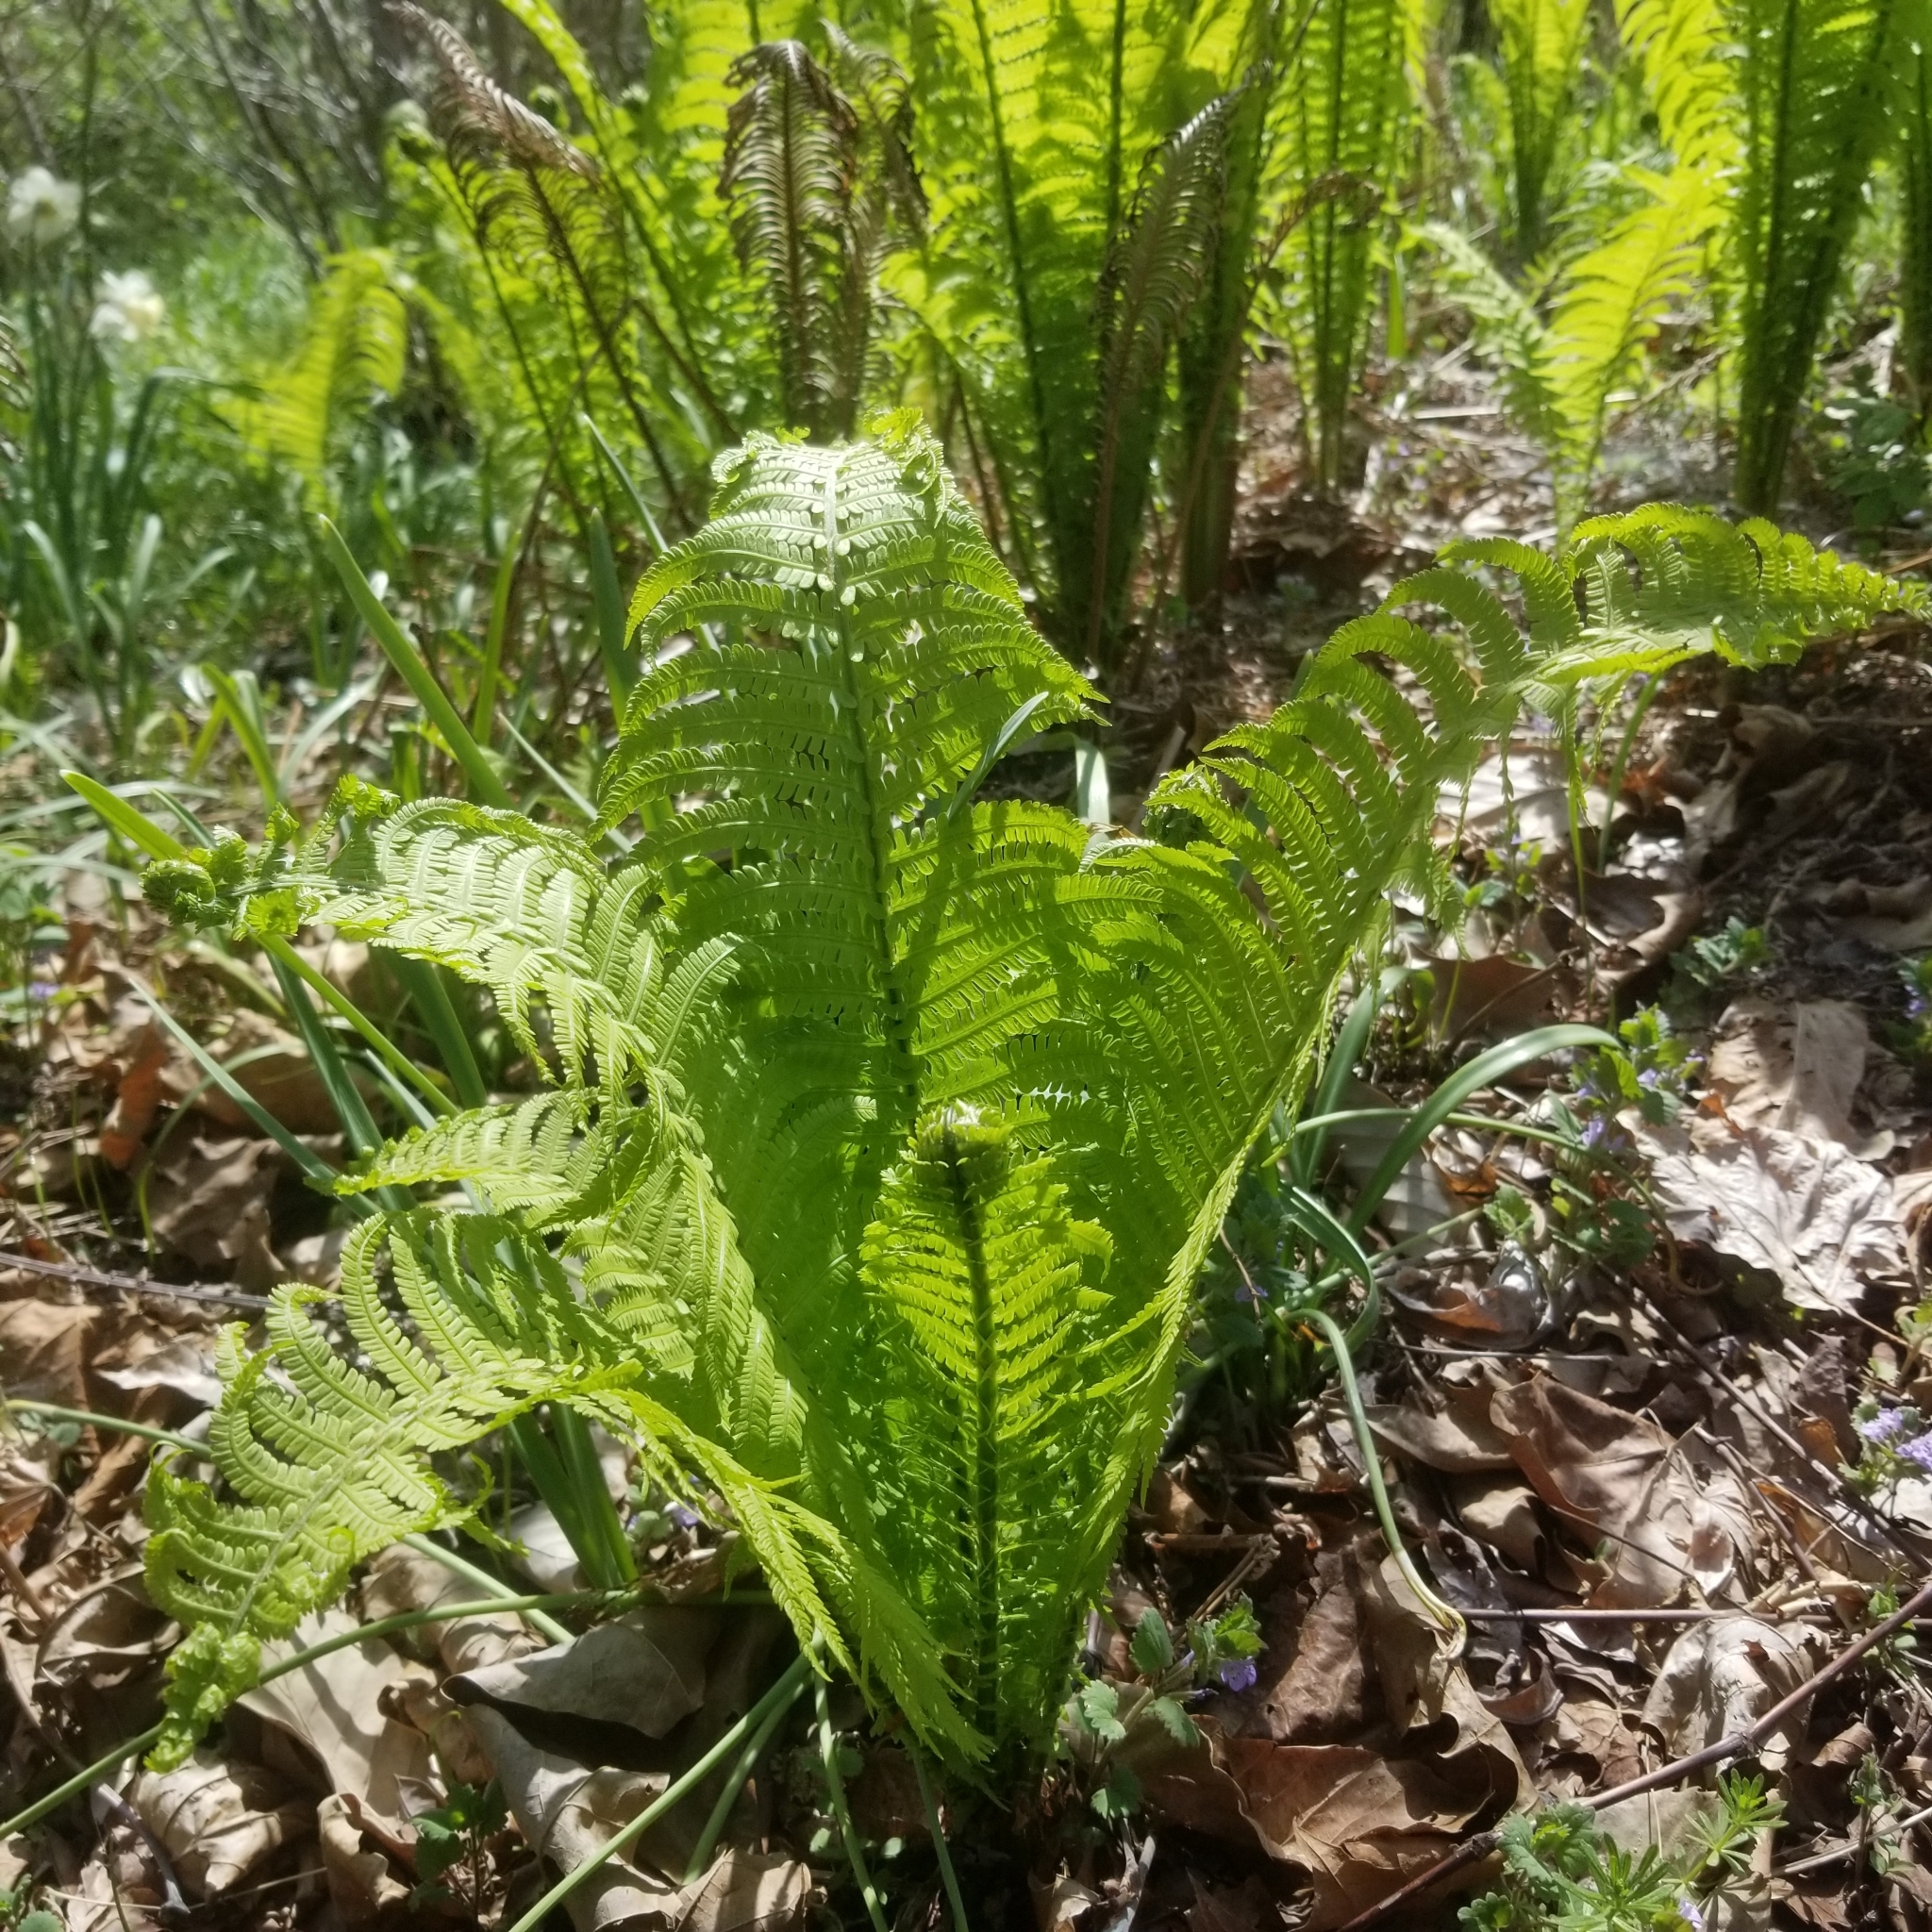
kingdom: Plantae
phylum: Tracheophyta
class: Polypodiopsida
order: Polypodiales
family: Onocleaceae
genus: Matteuccia
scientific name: Matteuccia struthiopteris
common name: Ostrich fern
